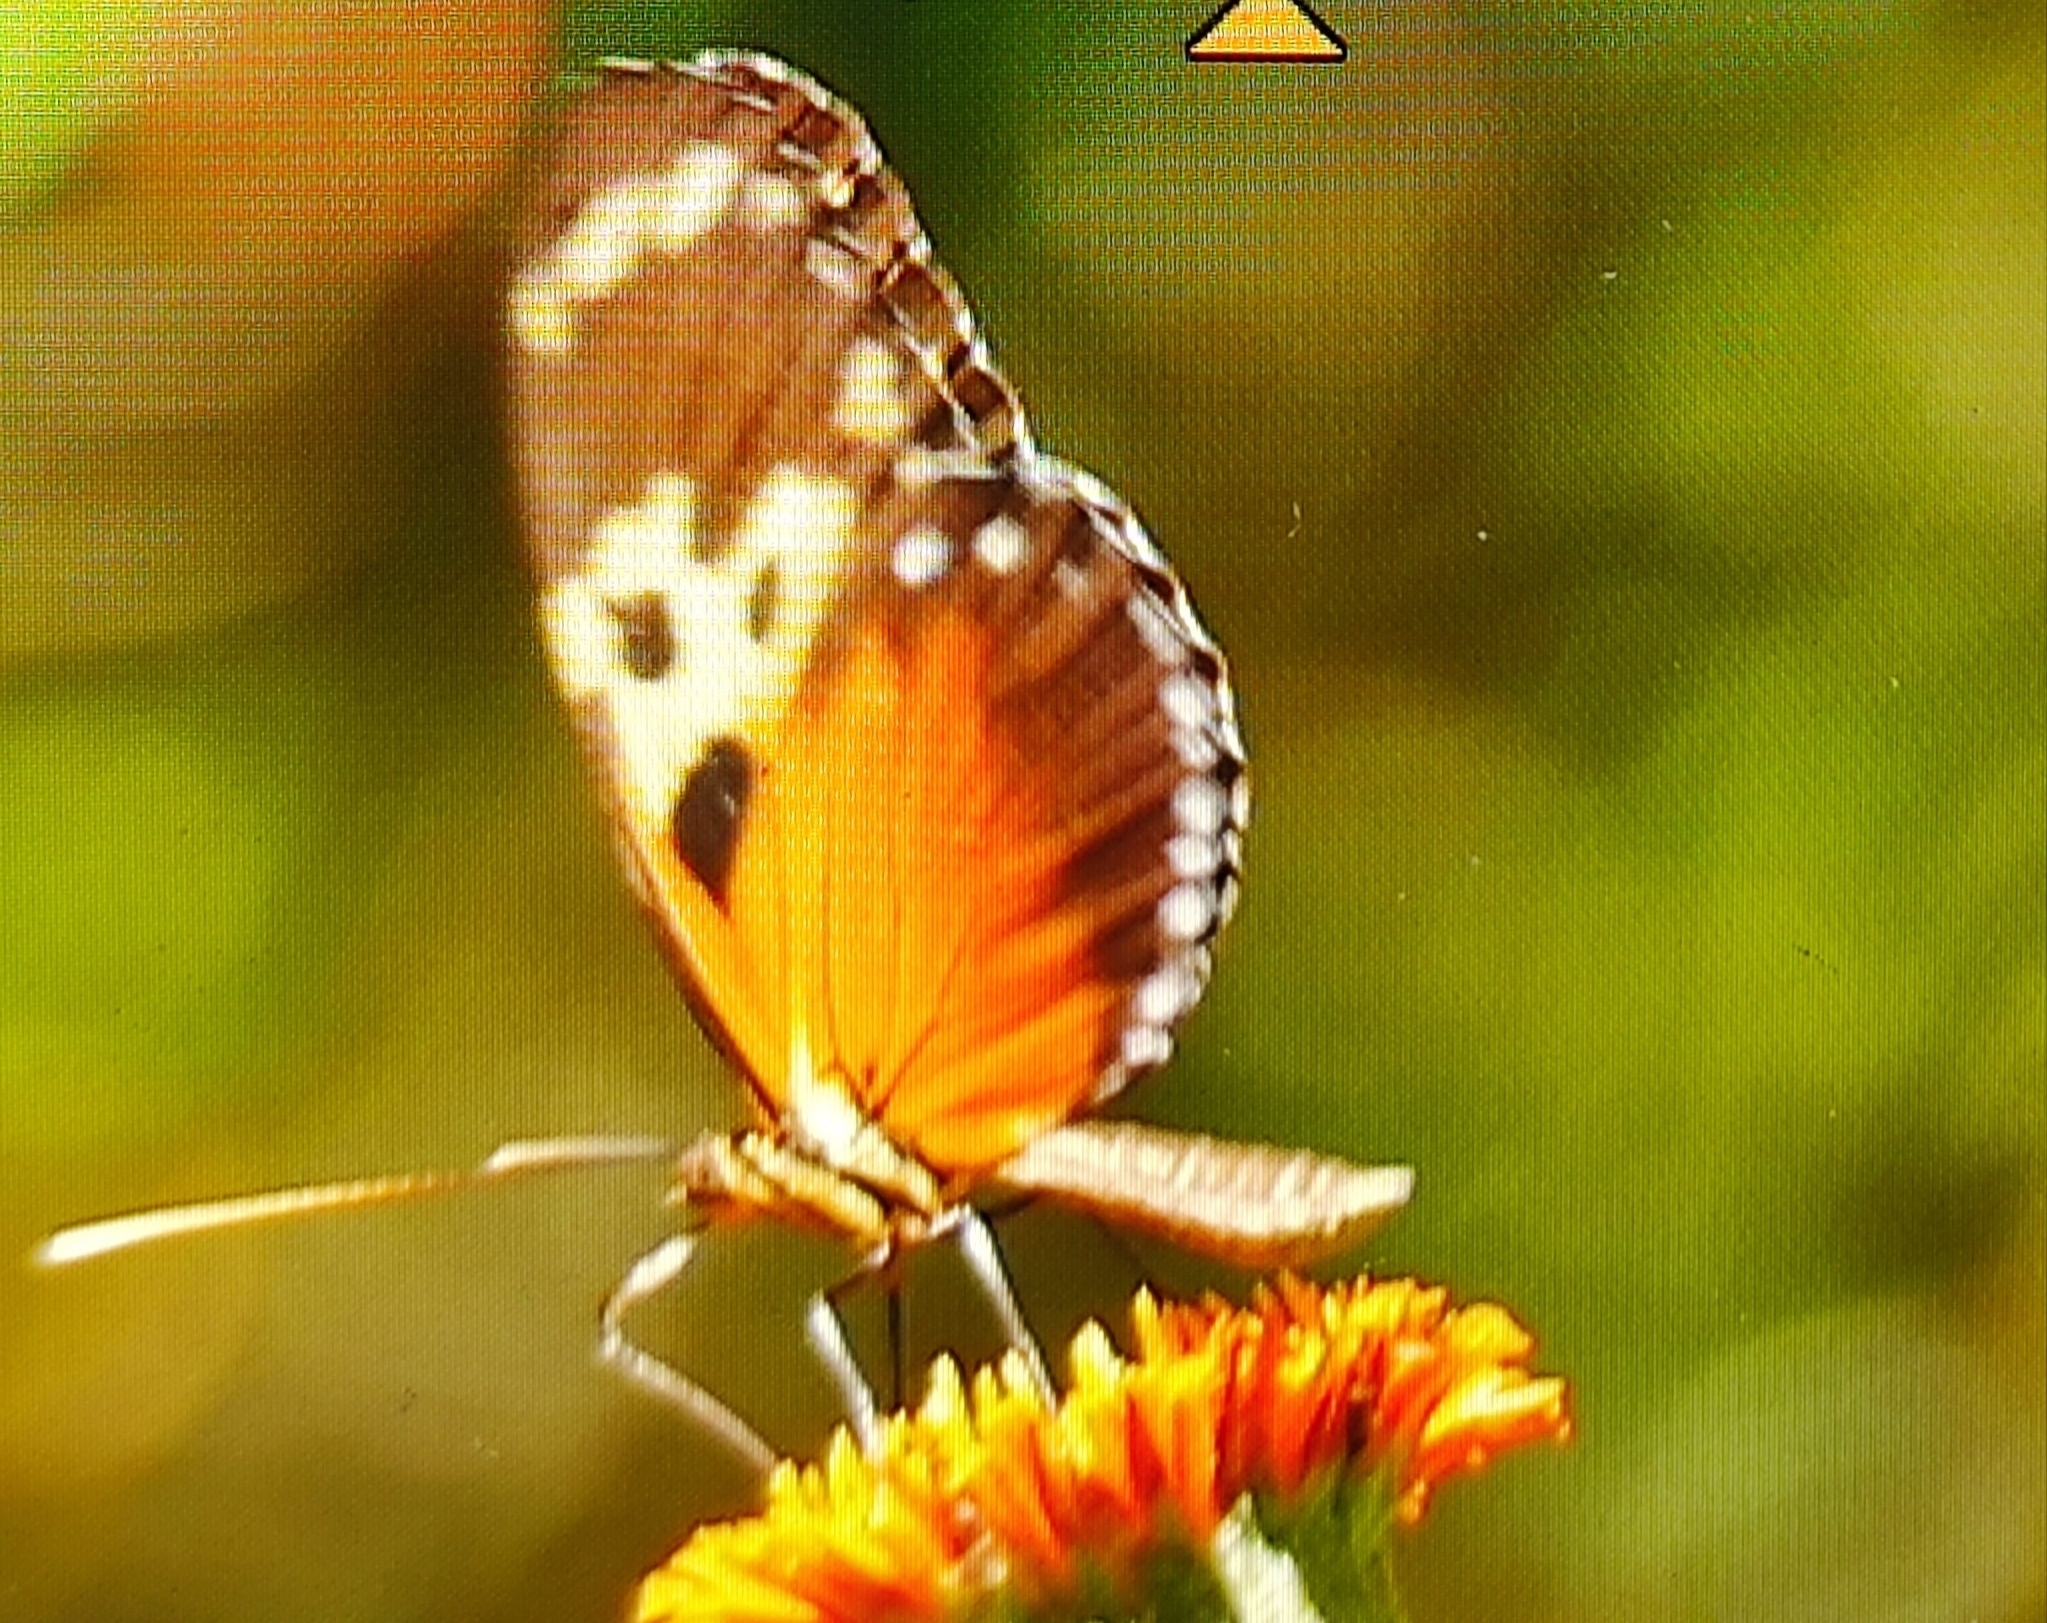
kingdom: Animalia
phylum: Arthropoda
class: Insecta
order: Lepidoptera
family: Nymphalidae
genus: Heliconius
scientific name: Heliconius hecale
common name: Tiger longwing
